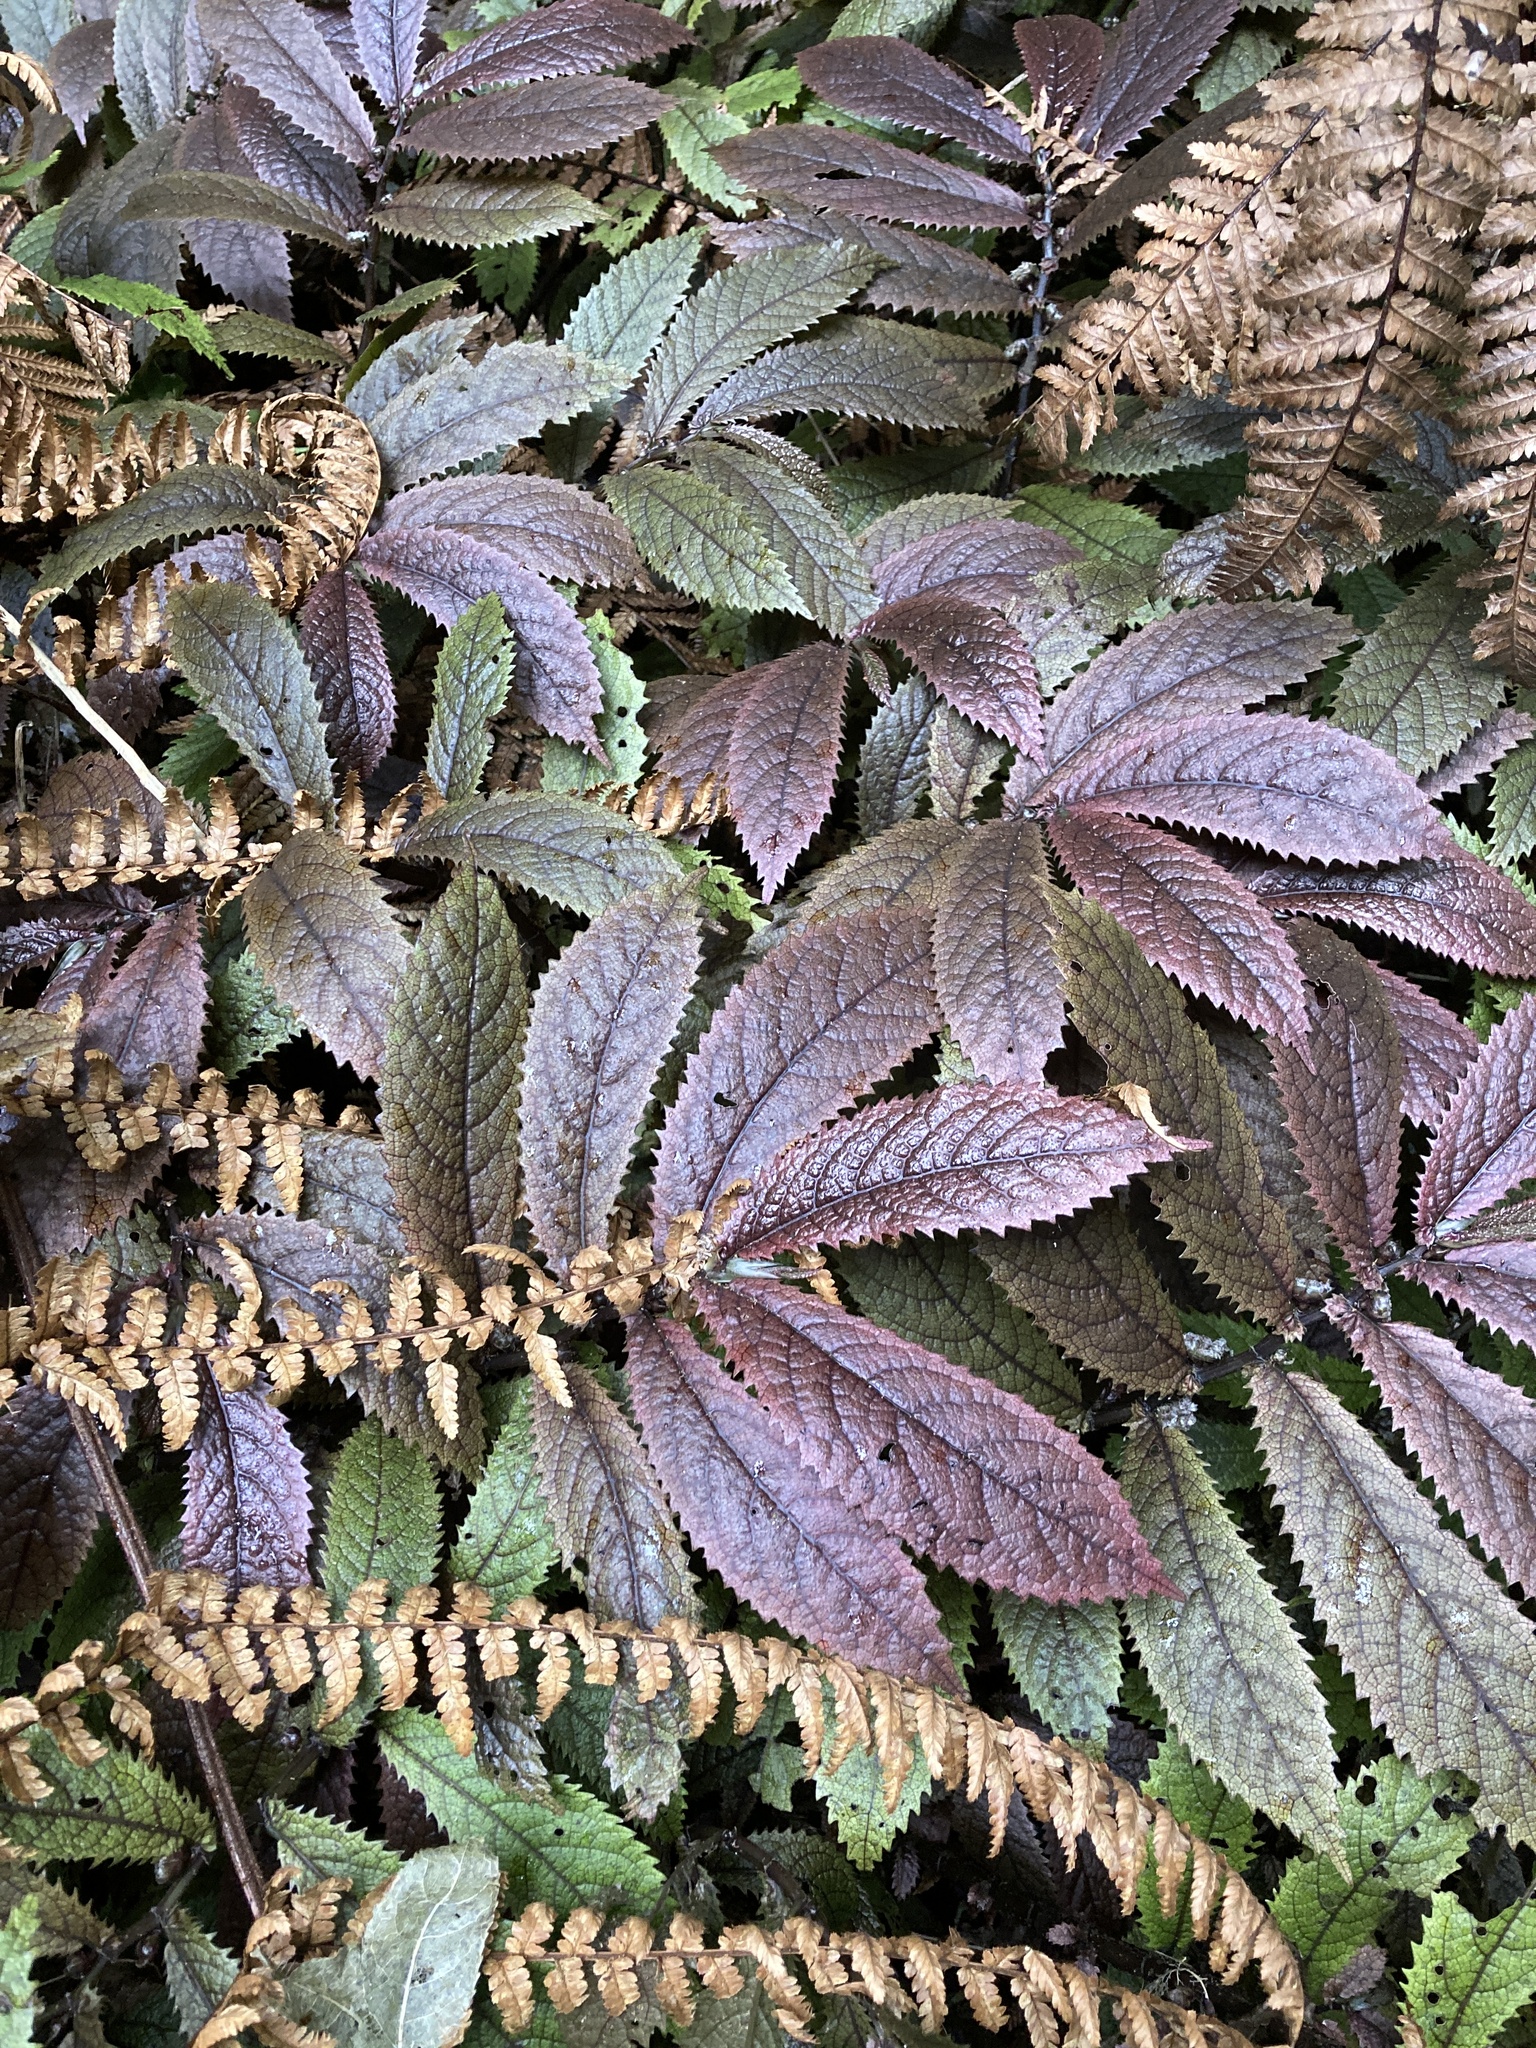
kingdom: Plantae
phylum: Tracheophyta
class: Magnoliopsida
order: Rosales
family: Urticaceae
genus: Elatostema
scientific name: Elatostema rugosum
